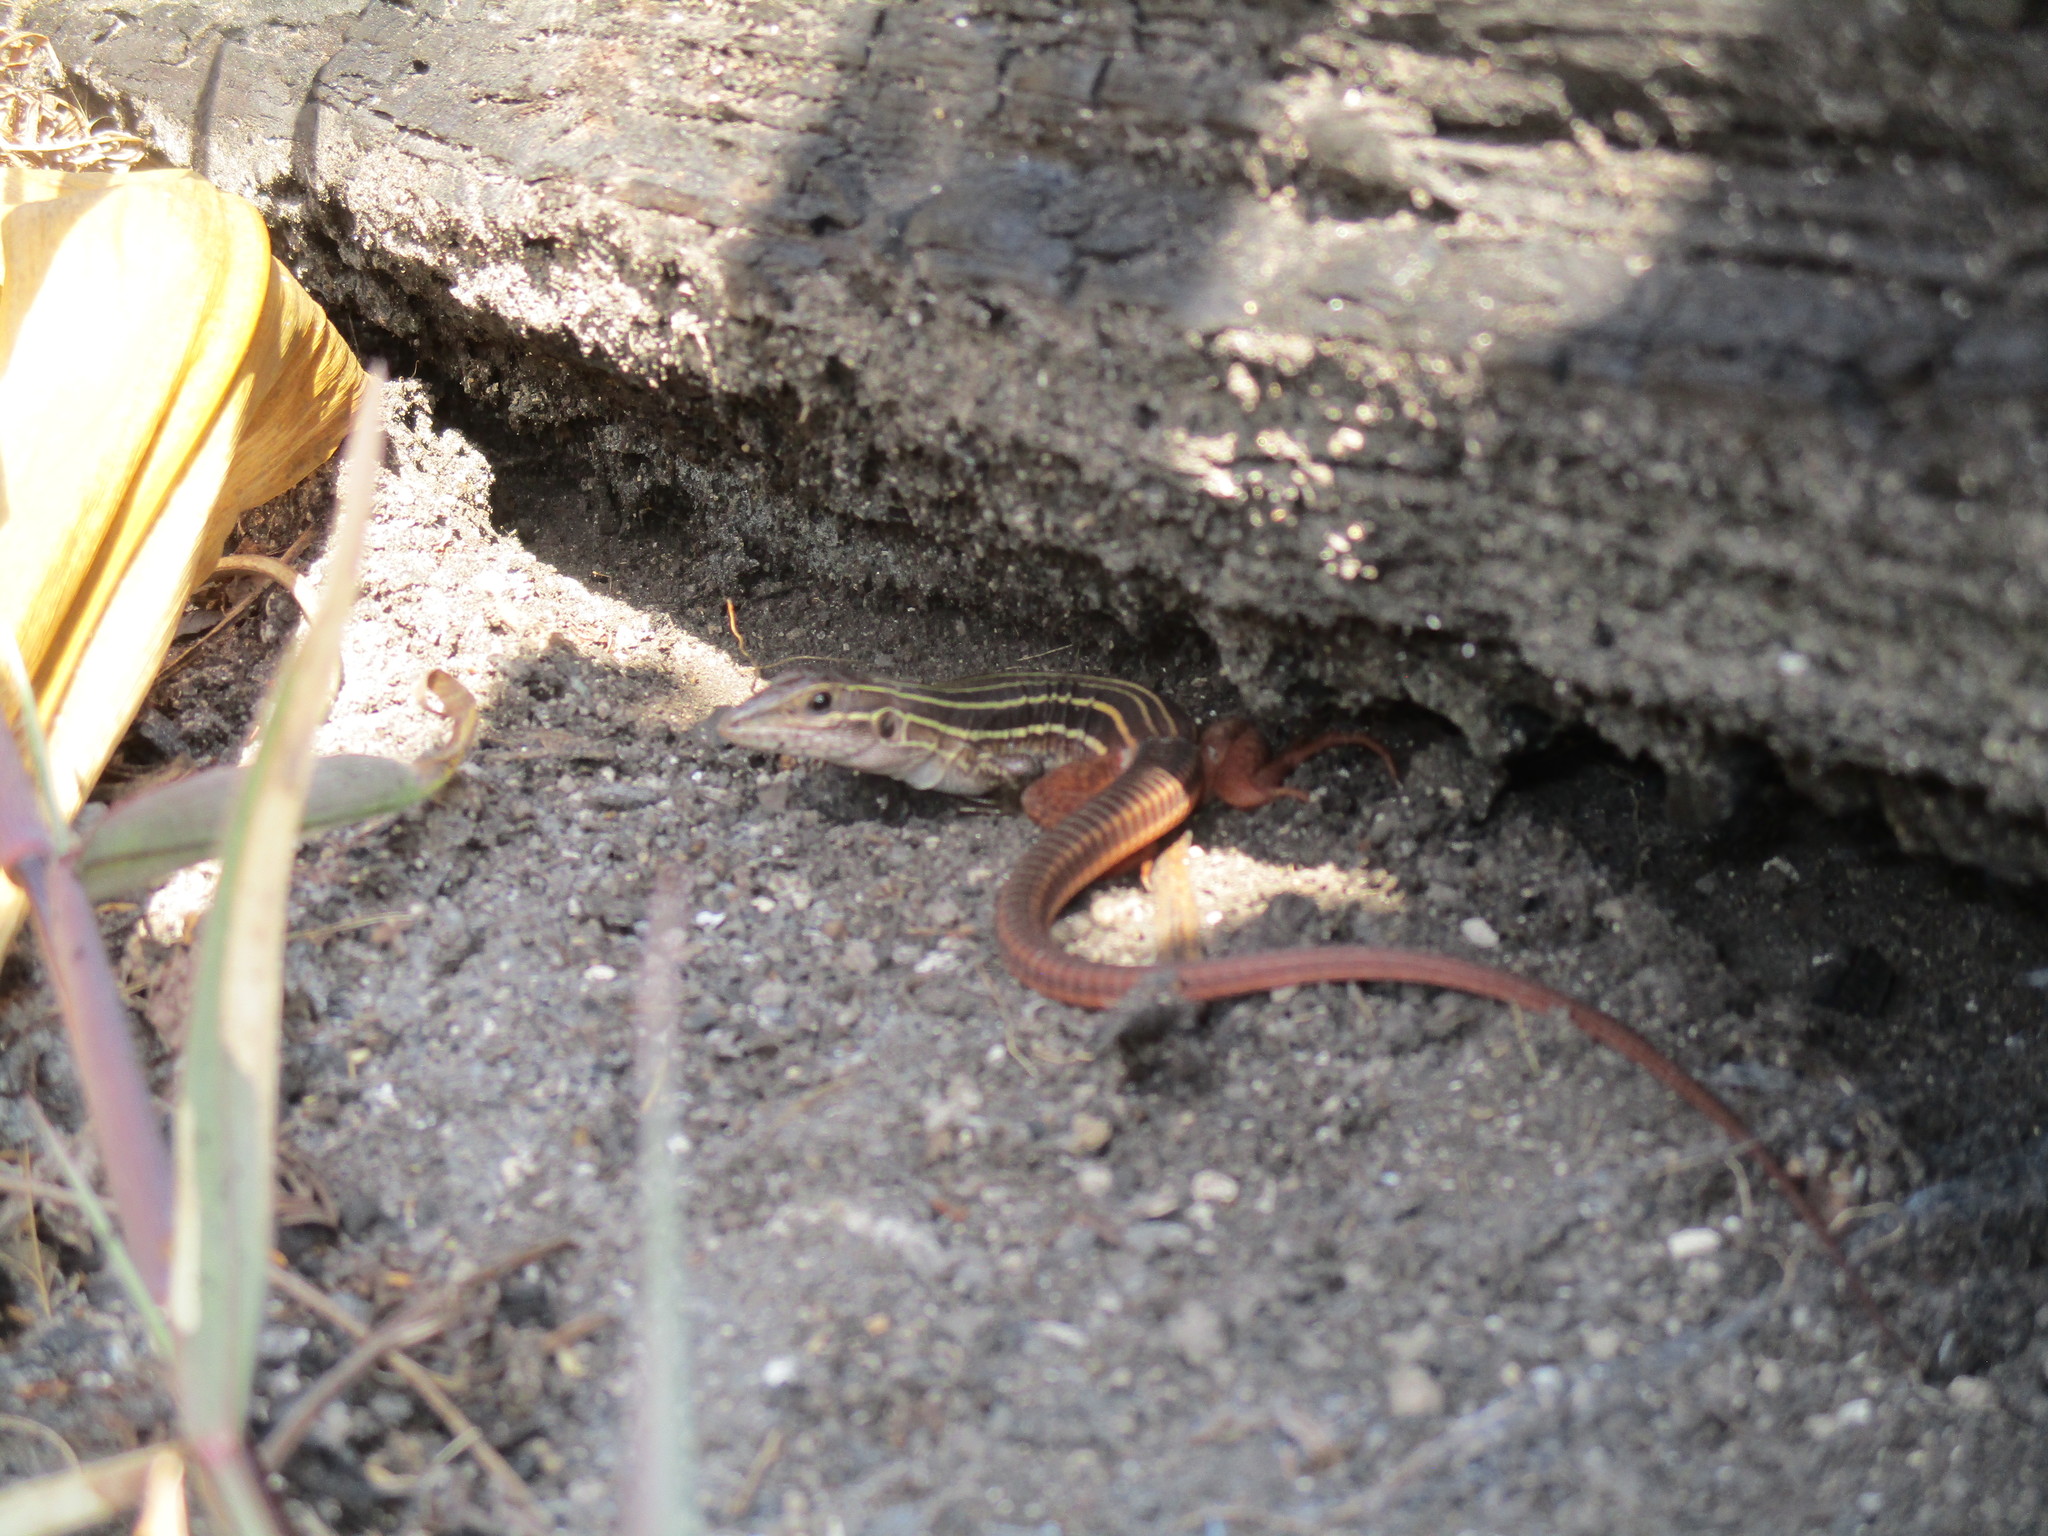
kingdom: Animalia
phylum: Chordata
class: Squamata
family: Teiidae
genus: Aspidoscelis
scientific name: Aspidoscelis angusticeps
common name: Yucatan whiptail
